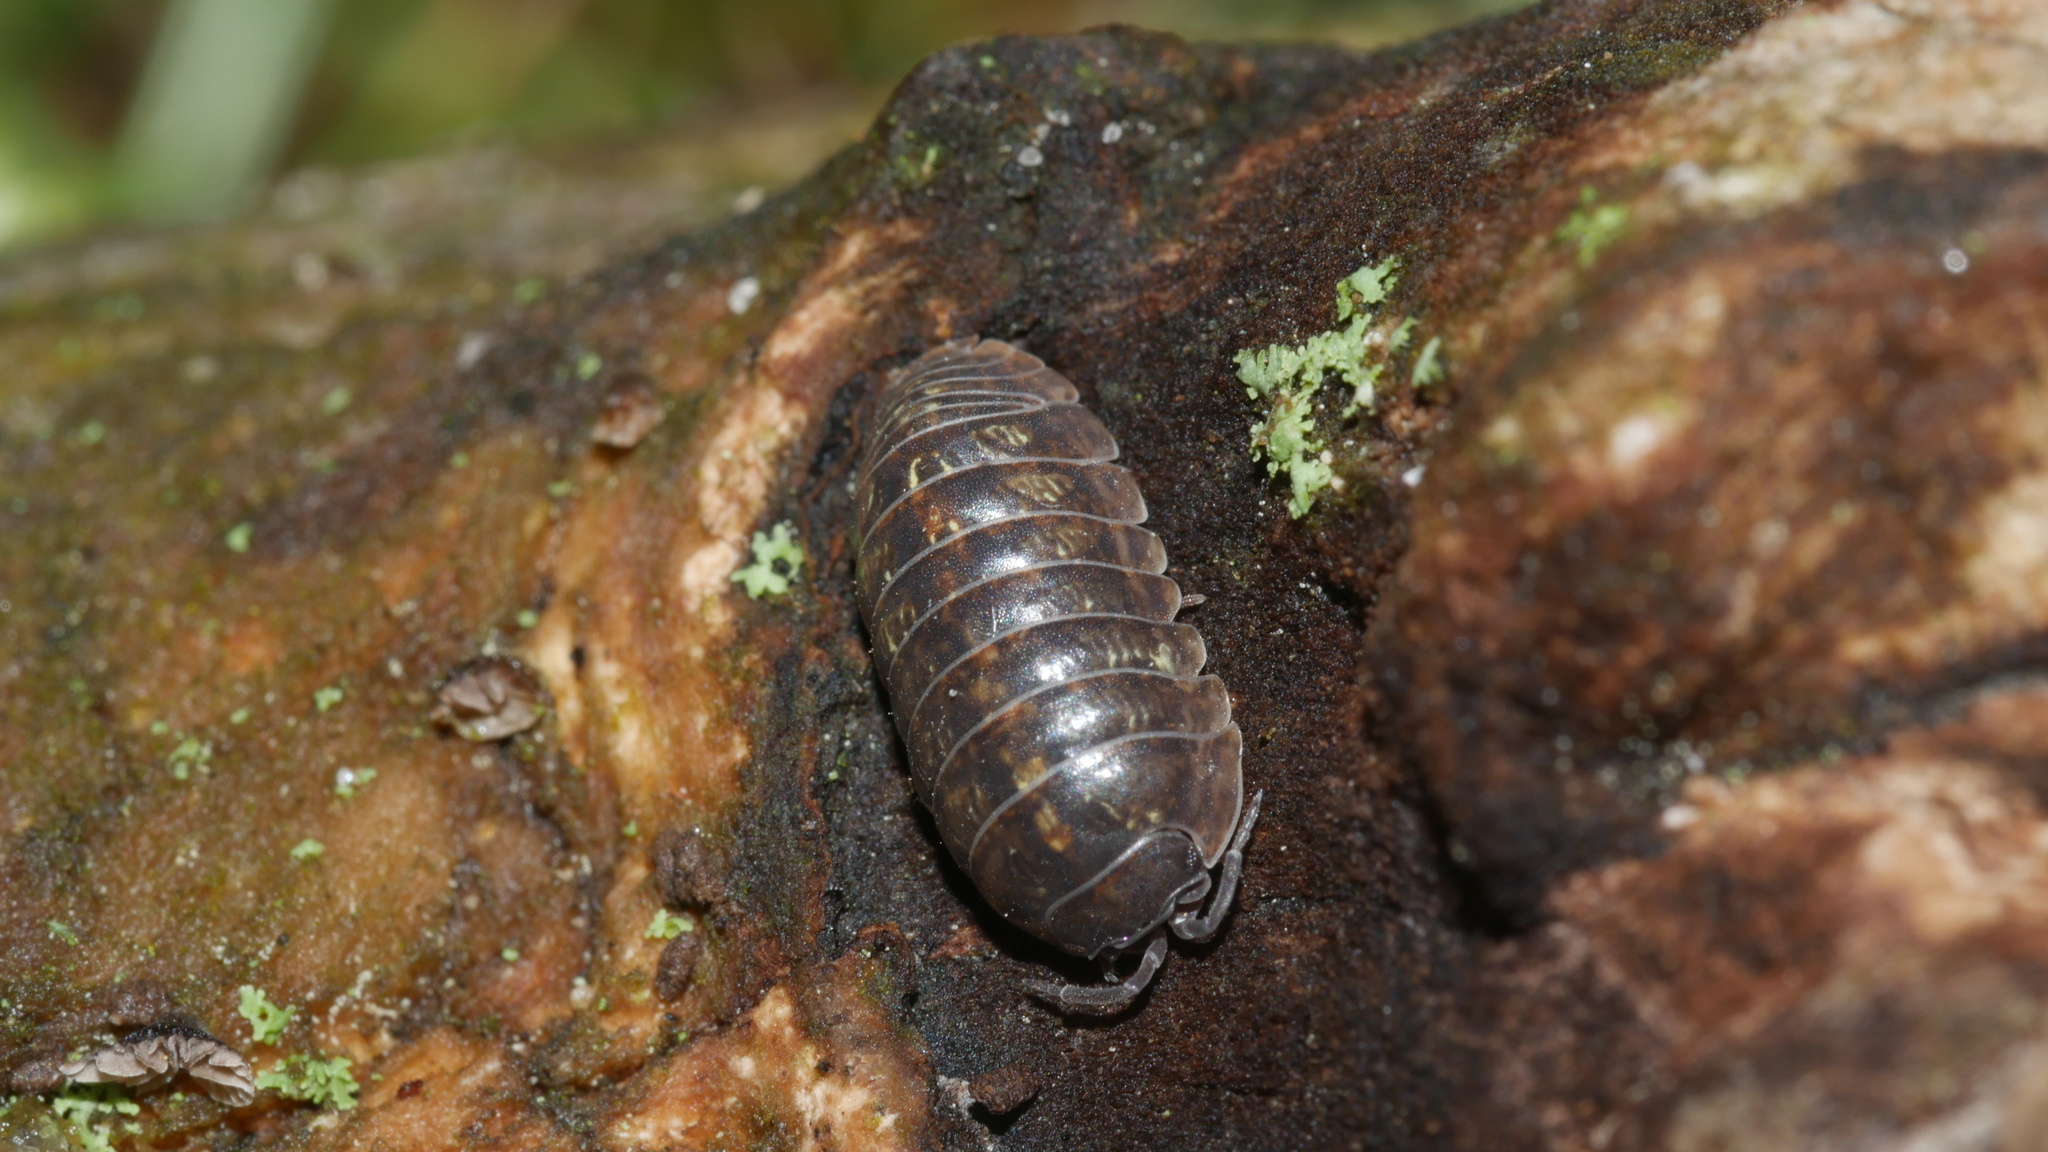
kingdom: Animalia
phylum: Arthropoda
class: Malacostraca
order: Isopoda
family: Armadillidiidae
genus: Armadillidium
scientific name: Armadillidium vulgare
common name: Common pill woodlouse
